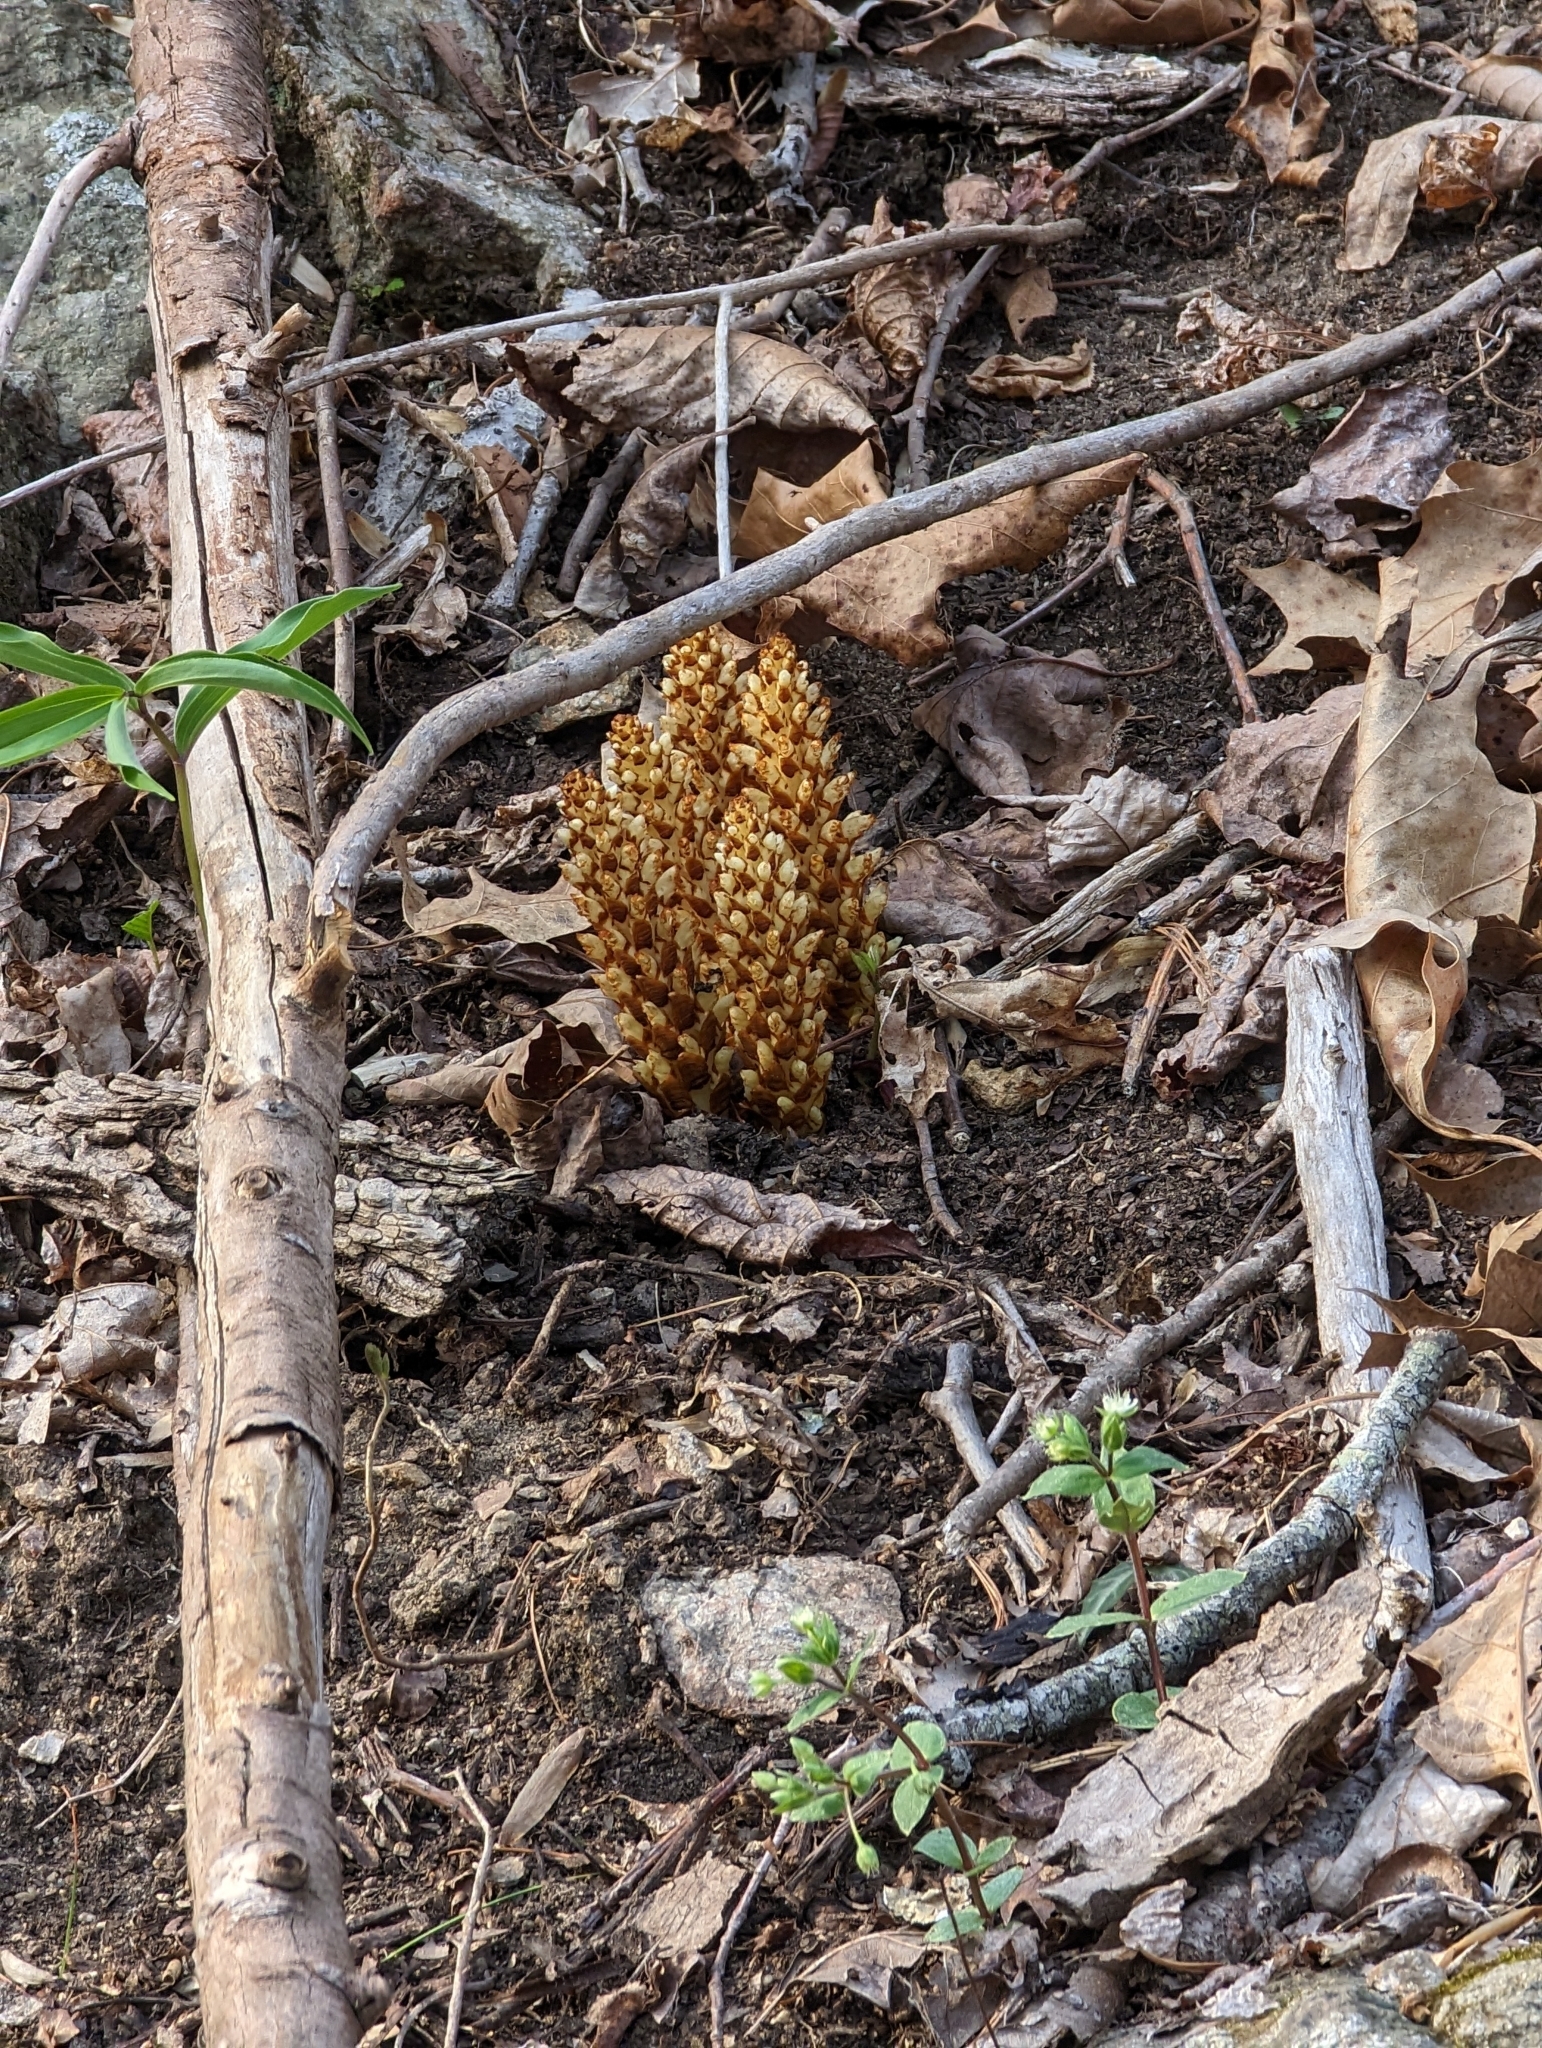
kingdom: Plantae
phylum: Tracheophyta
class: Magnoliopsida
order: Lamiales
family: Orobanchaceae
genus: Conopholis
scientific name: Conopholis americana
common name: American cancer-root
